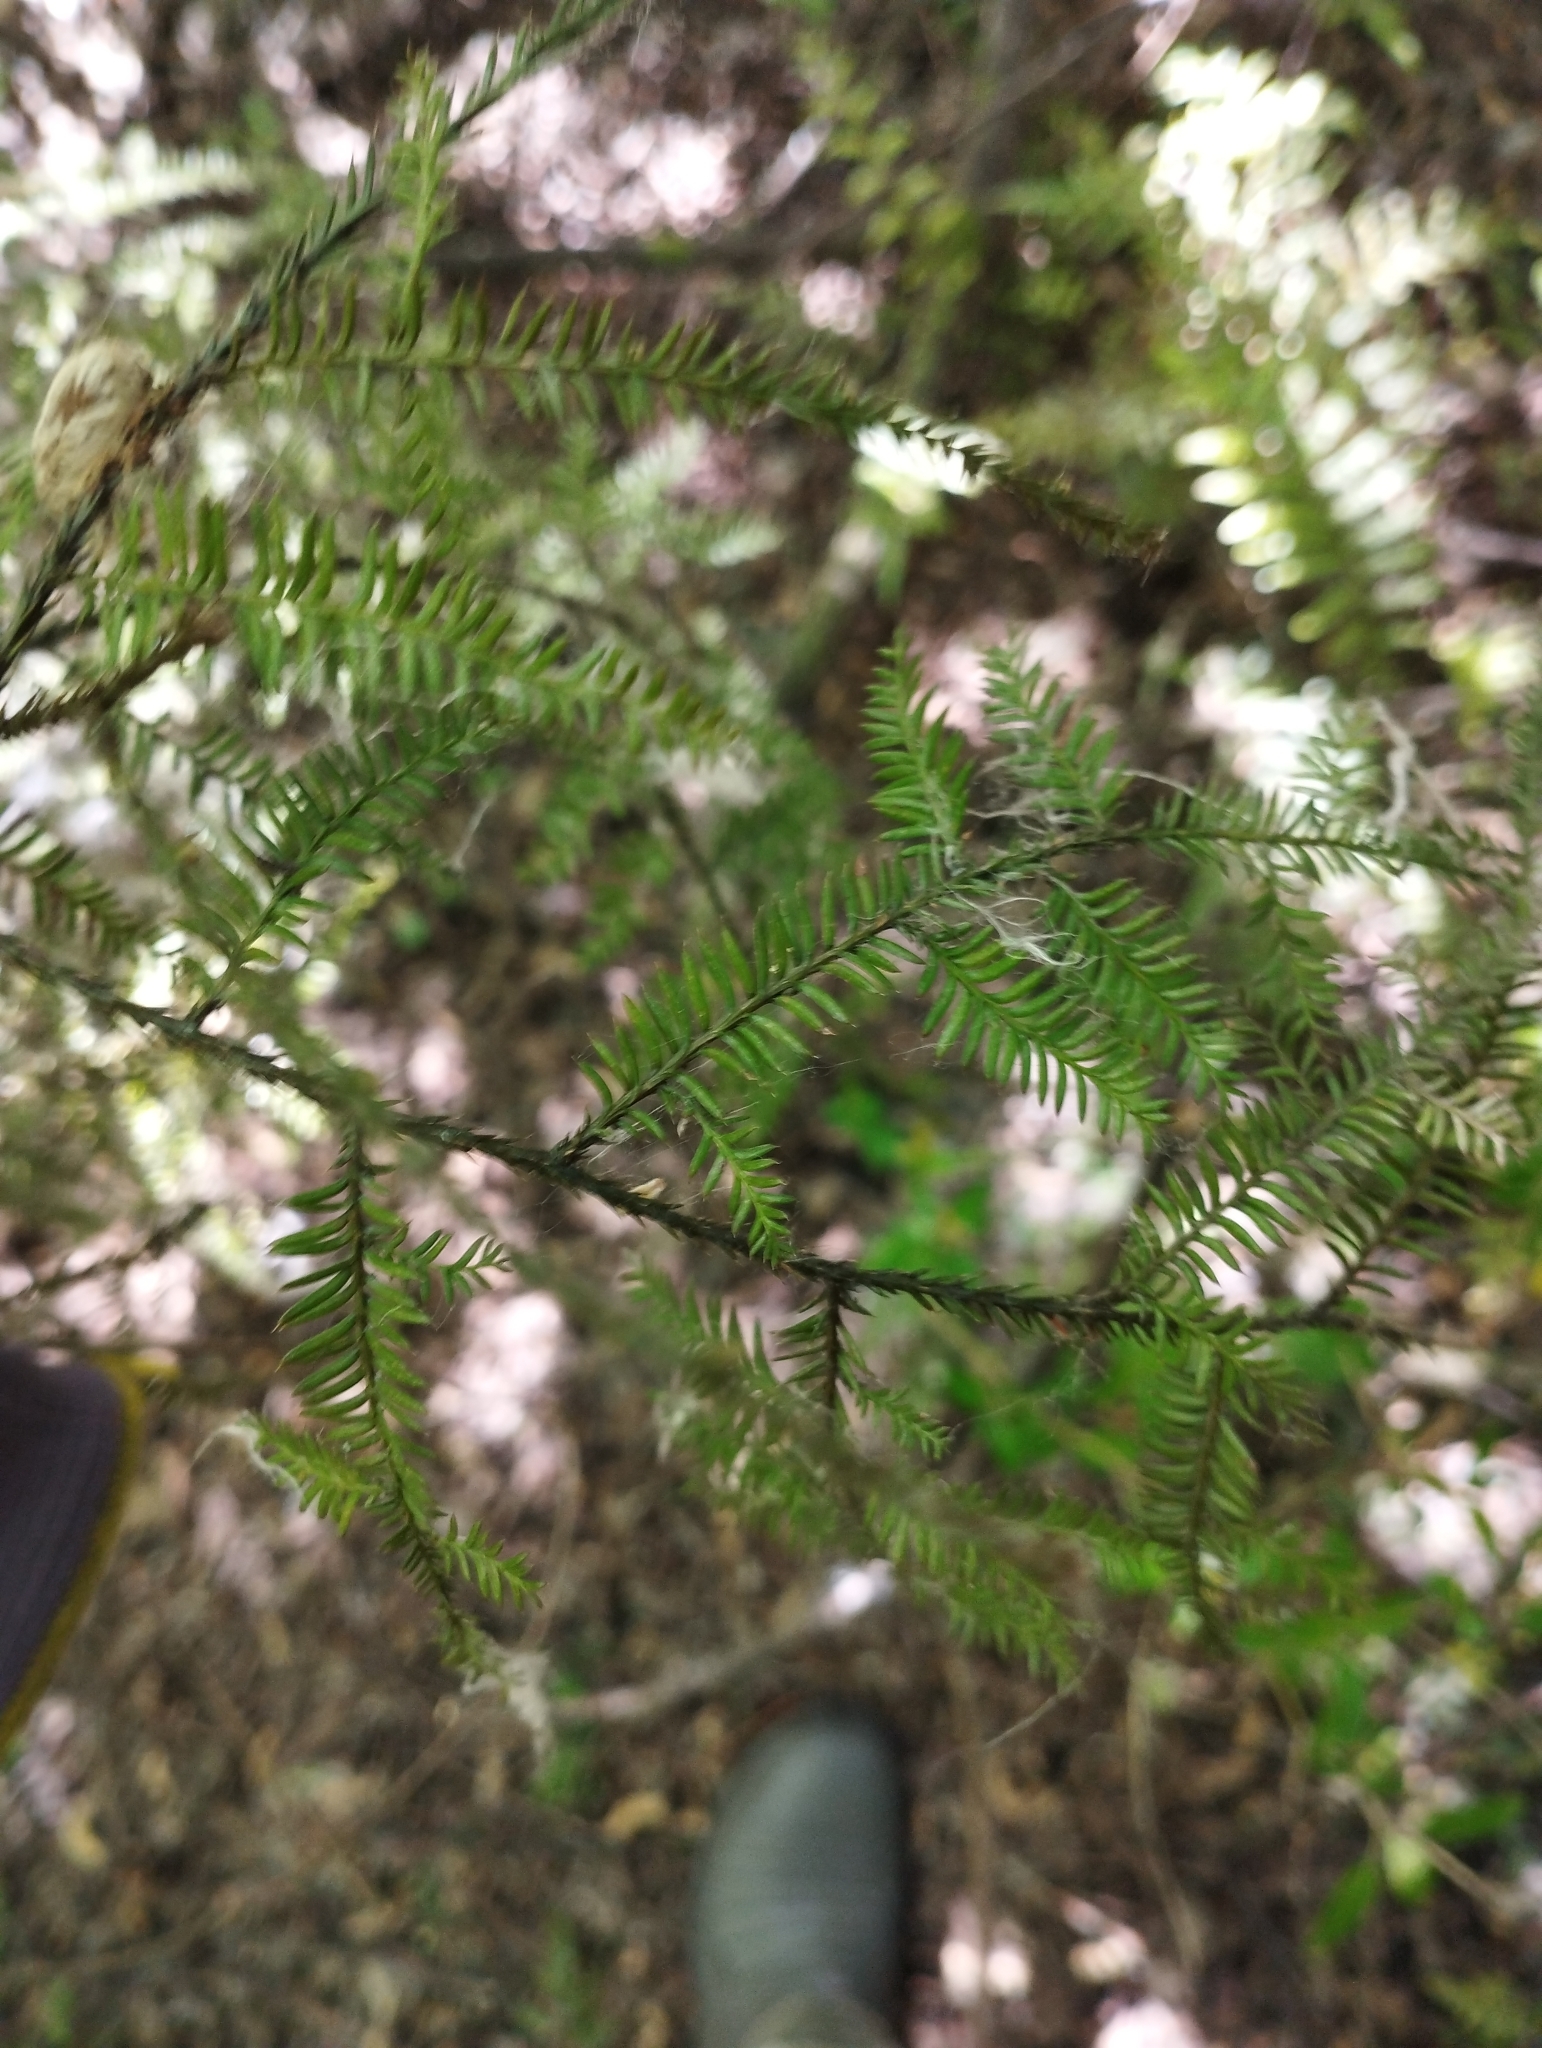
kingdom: Plantae
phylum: Tracheophyta
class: Pinopsida
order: Pinales
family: Podocarpaceae
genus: Dacrycarpus
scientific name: Dacrycarpus dacrydioides
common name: White pine
